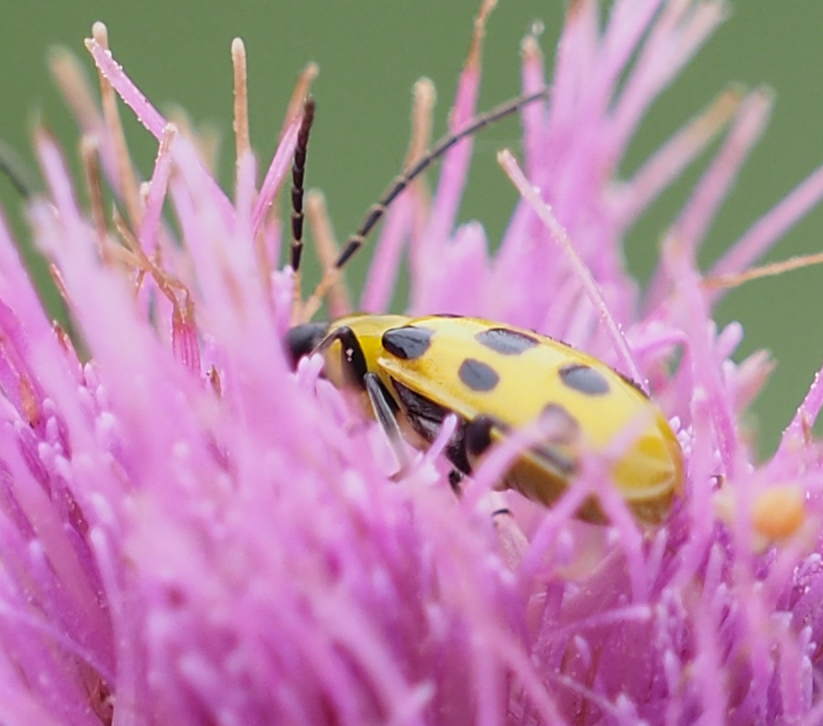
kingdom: Animalia
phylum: Arthropoda
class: Insecta
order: Coleoptera
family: Chrysomelidae
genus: Diabrotica
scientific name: Diabrotica undecimpunctata
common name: Spotted cucumber beetle
